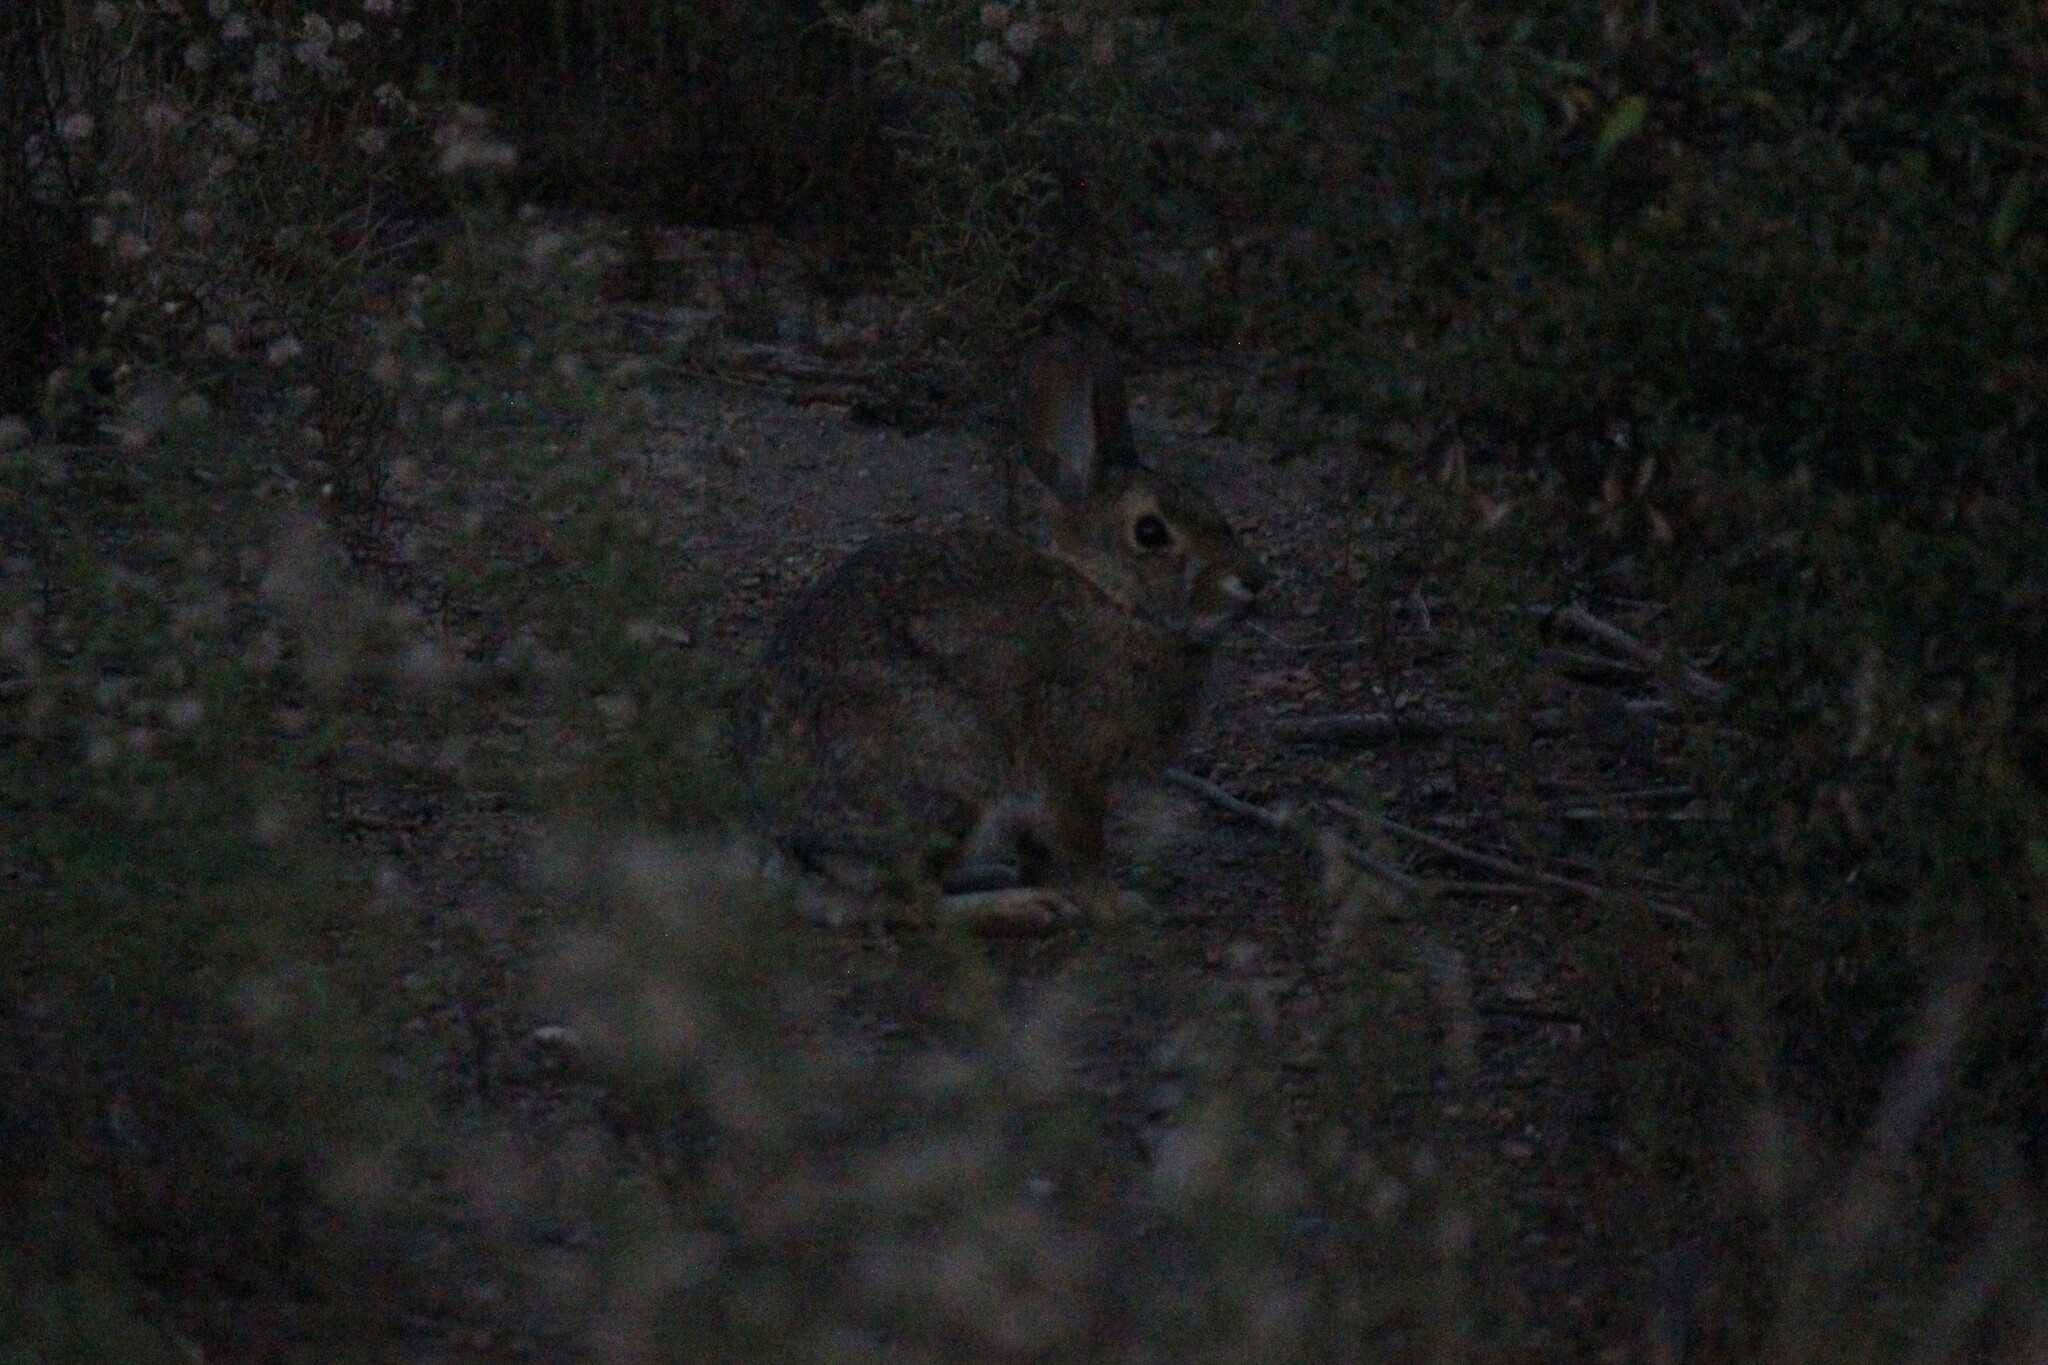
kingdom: Animalia
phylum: Chordata
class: Mammalia
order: Lagomorpha
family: Leporidae
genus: Sylvilagus
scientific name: Sylvilagus audubonii
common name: Desert cottontail
